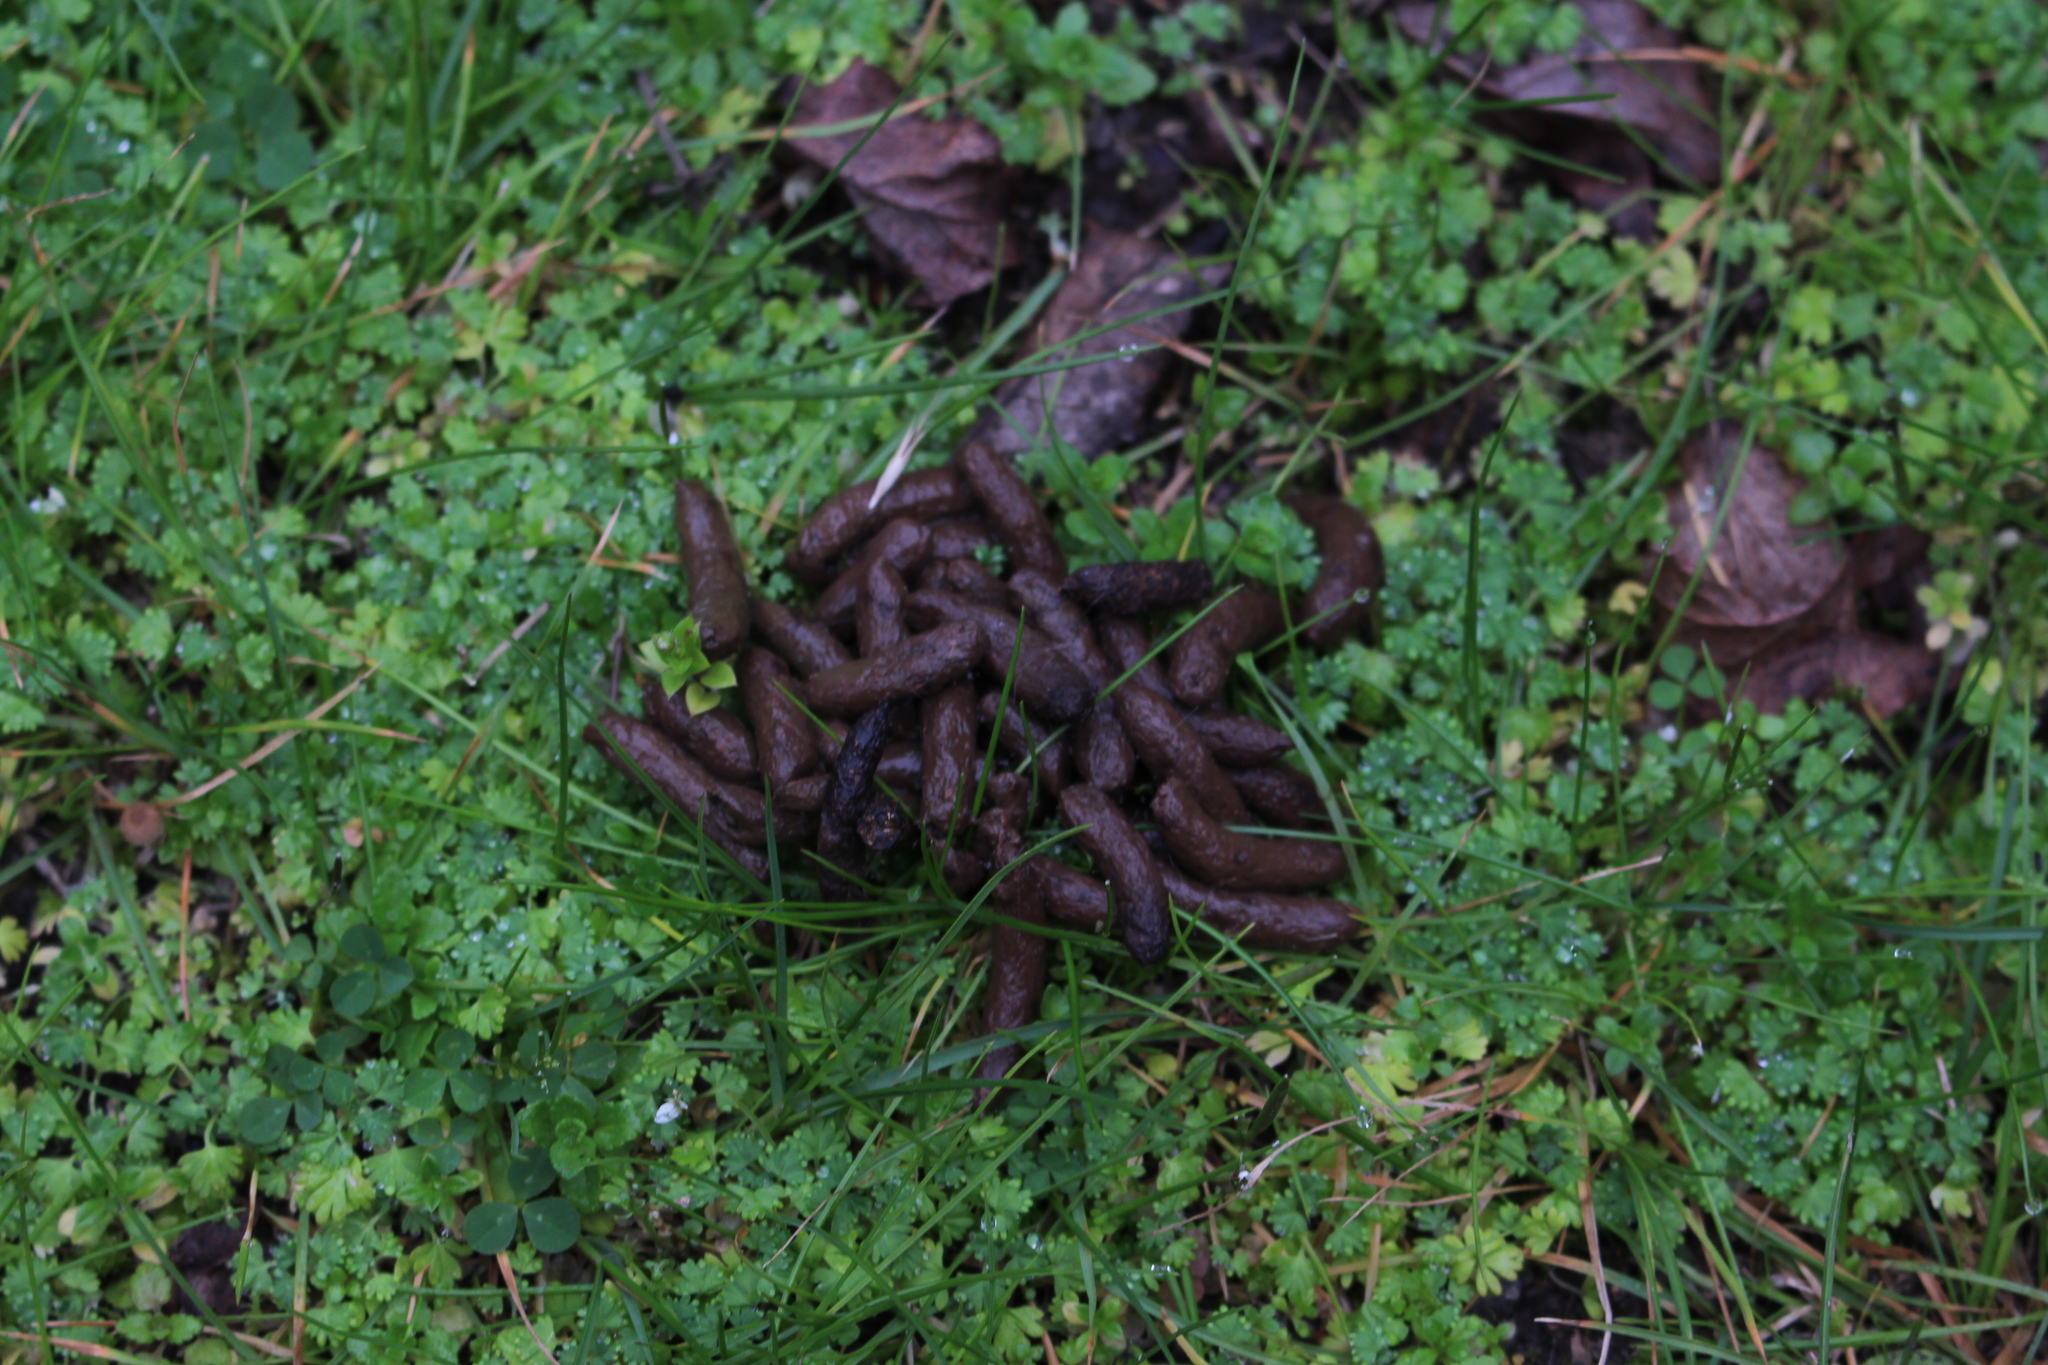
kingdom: Animalia
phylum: Chordata
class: Mammalia
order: Diprotodontia
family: Phalangeridae
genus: Trichosurus
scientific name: Trichosurus vulpecula
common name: Common brushtail
